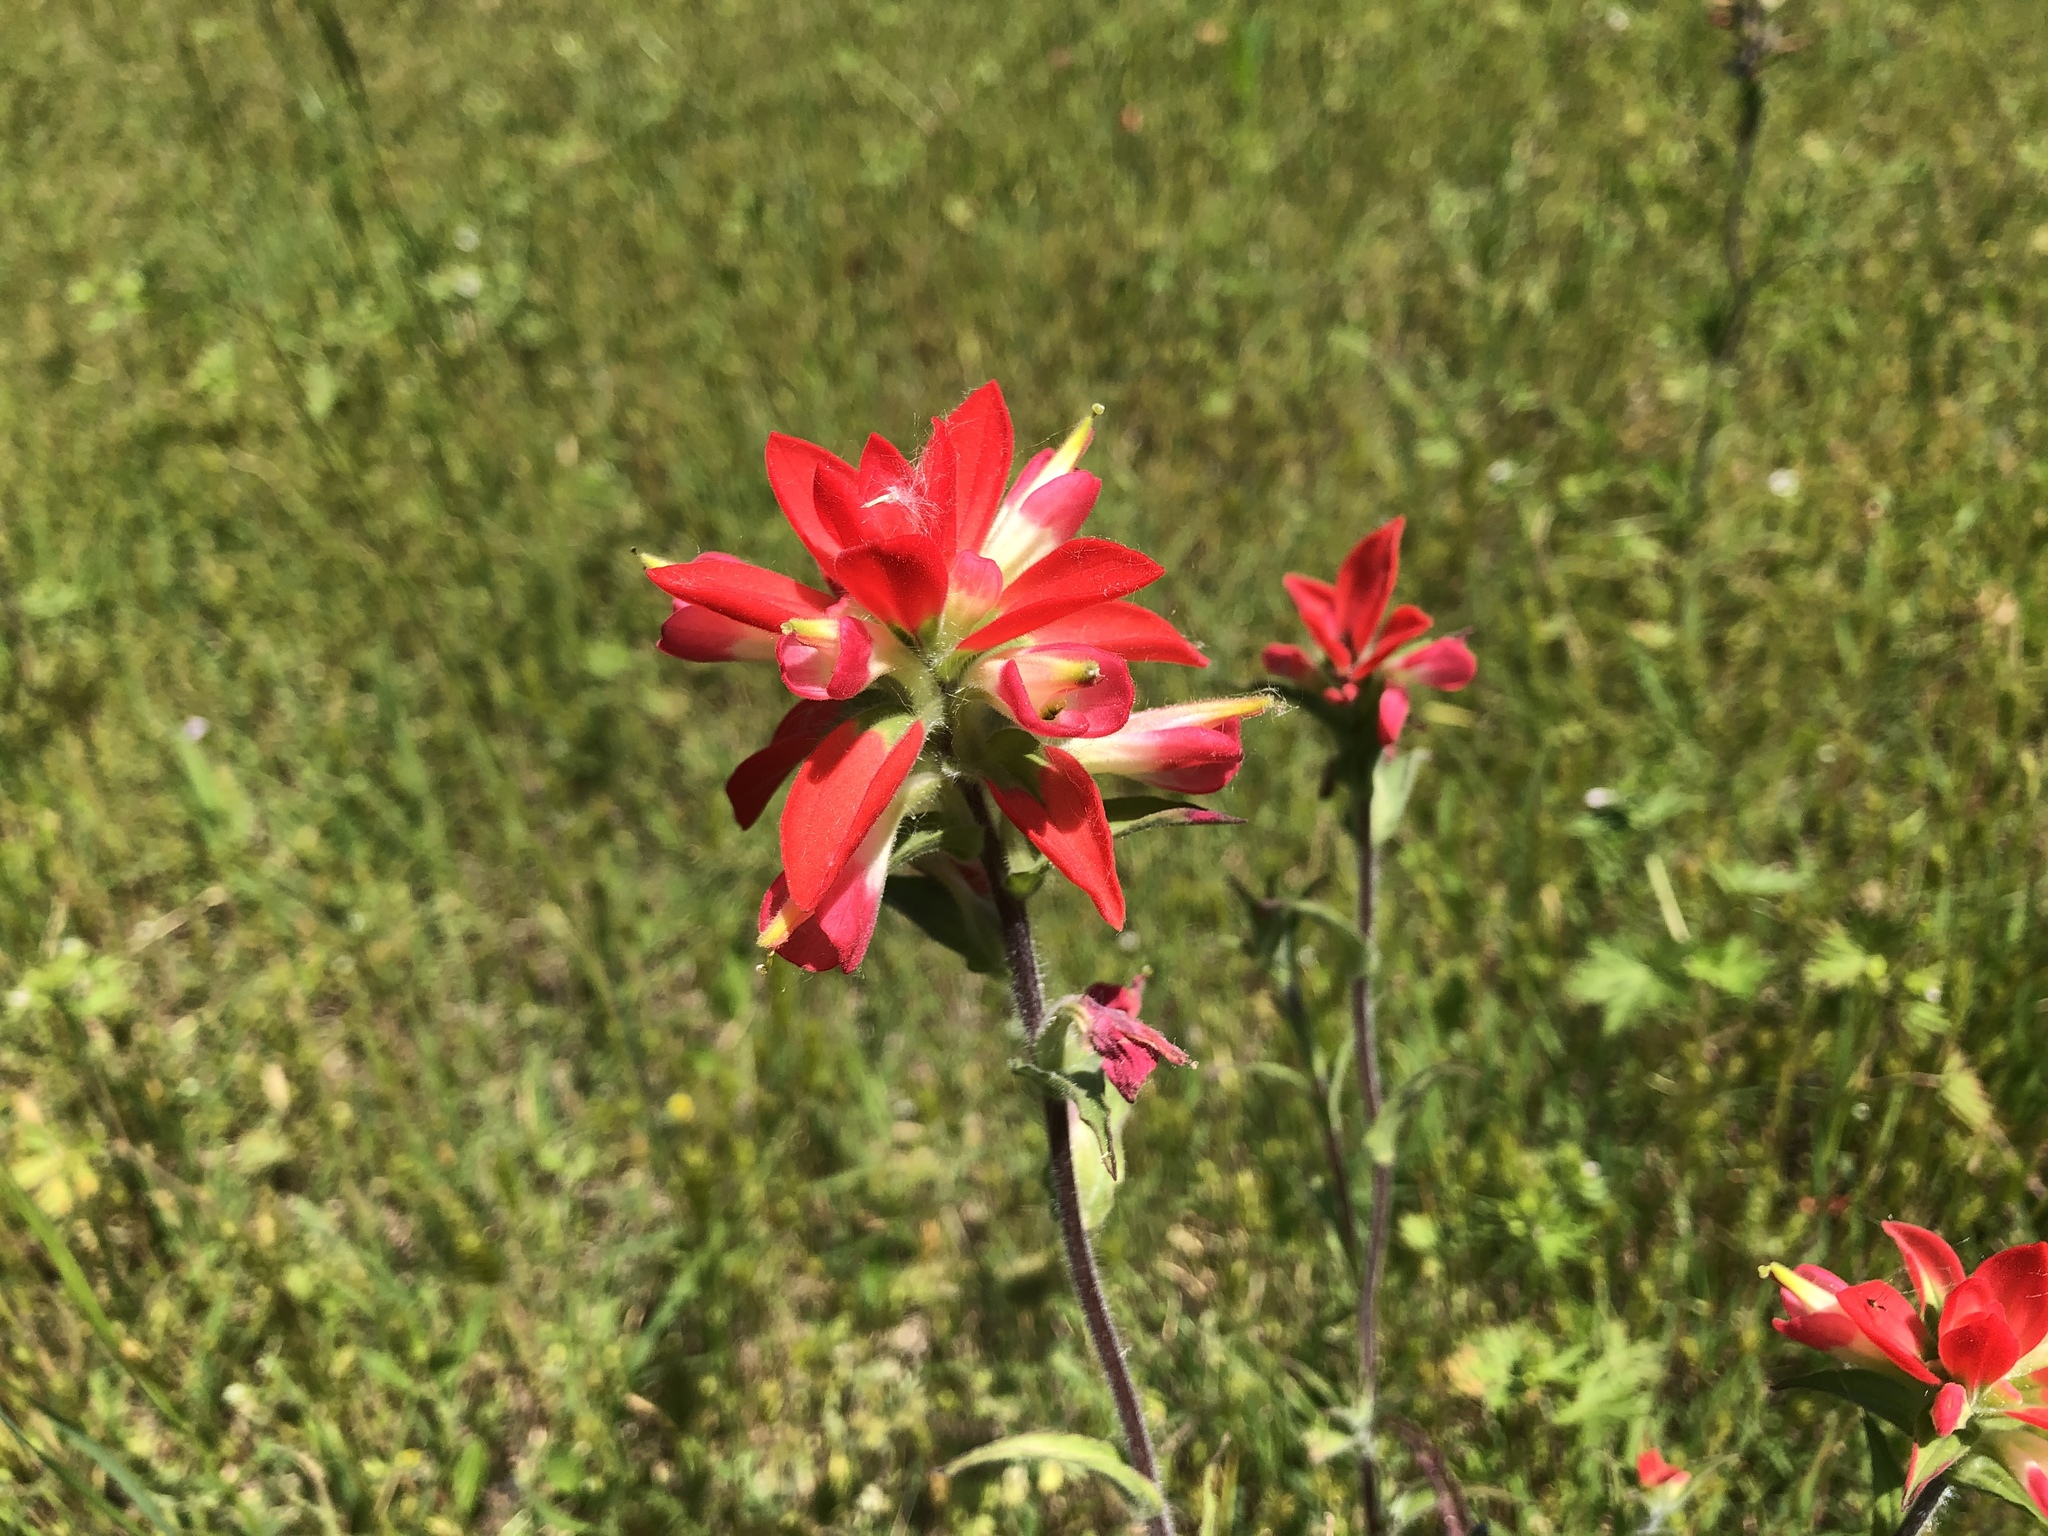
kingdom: Plantae
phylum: Tracheophyta
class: Magnoliopsida
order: Lamiales
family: Orobanchaceae
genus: Castilleja
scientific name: Castilleja indivisa
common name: Texas paintbrush
